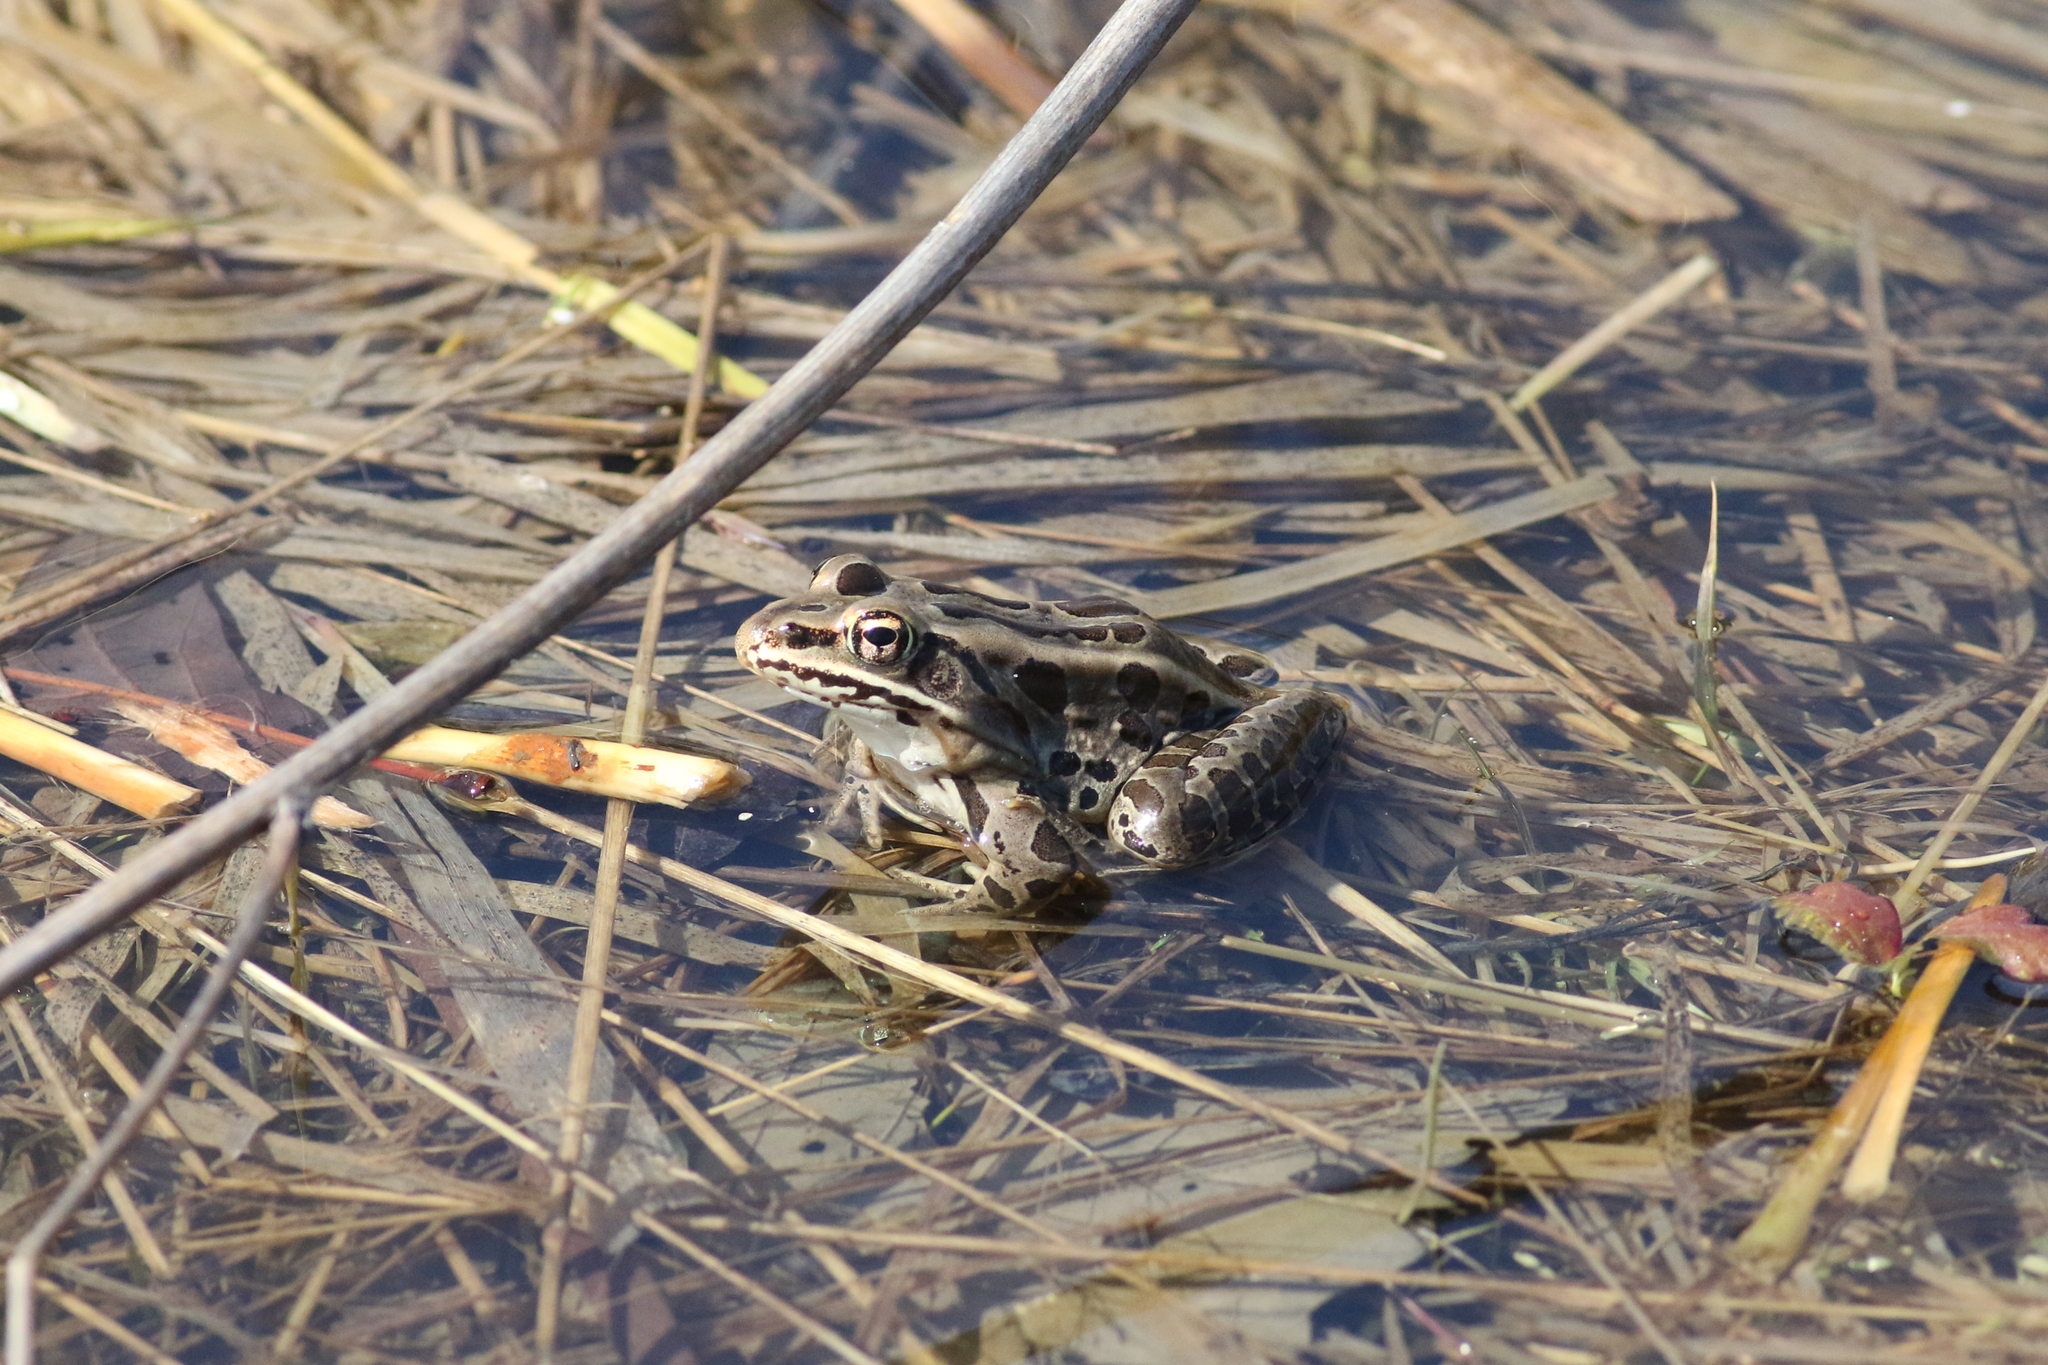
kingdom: Animalia
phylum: Chordata
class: Amphibia
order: Anura
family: Ranidae
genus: Lithobates
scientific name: Lithobates pipiens
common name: Northern leopard frog
